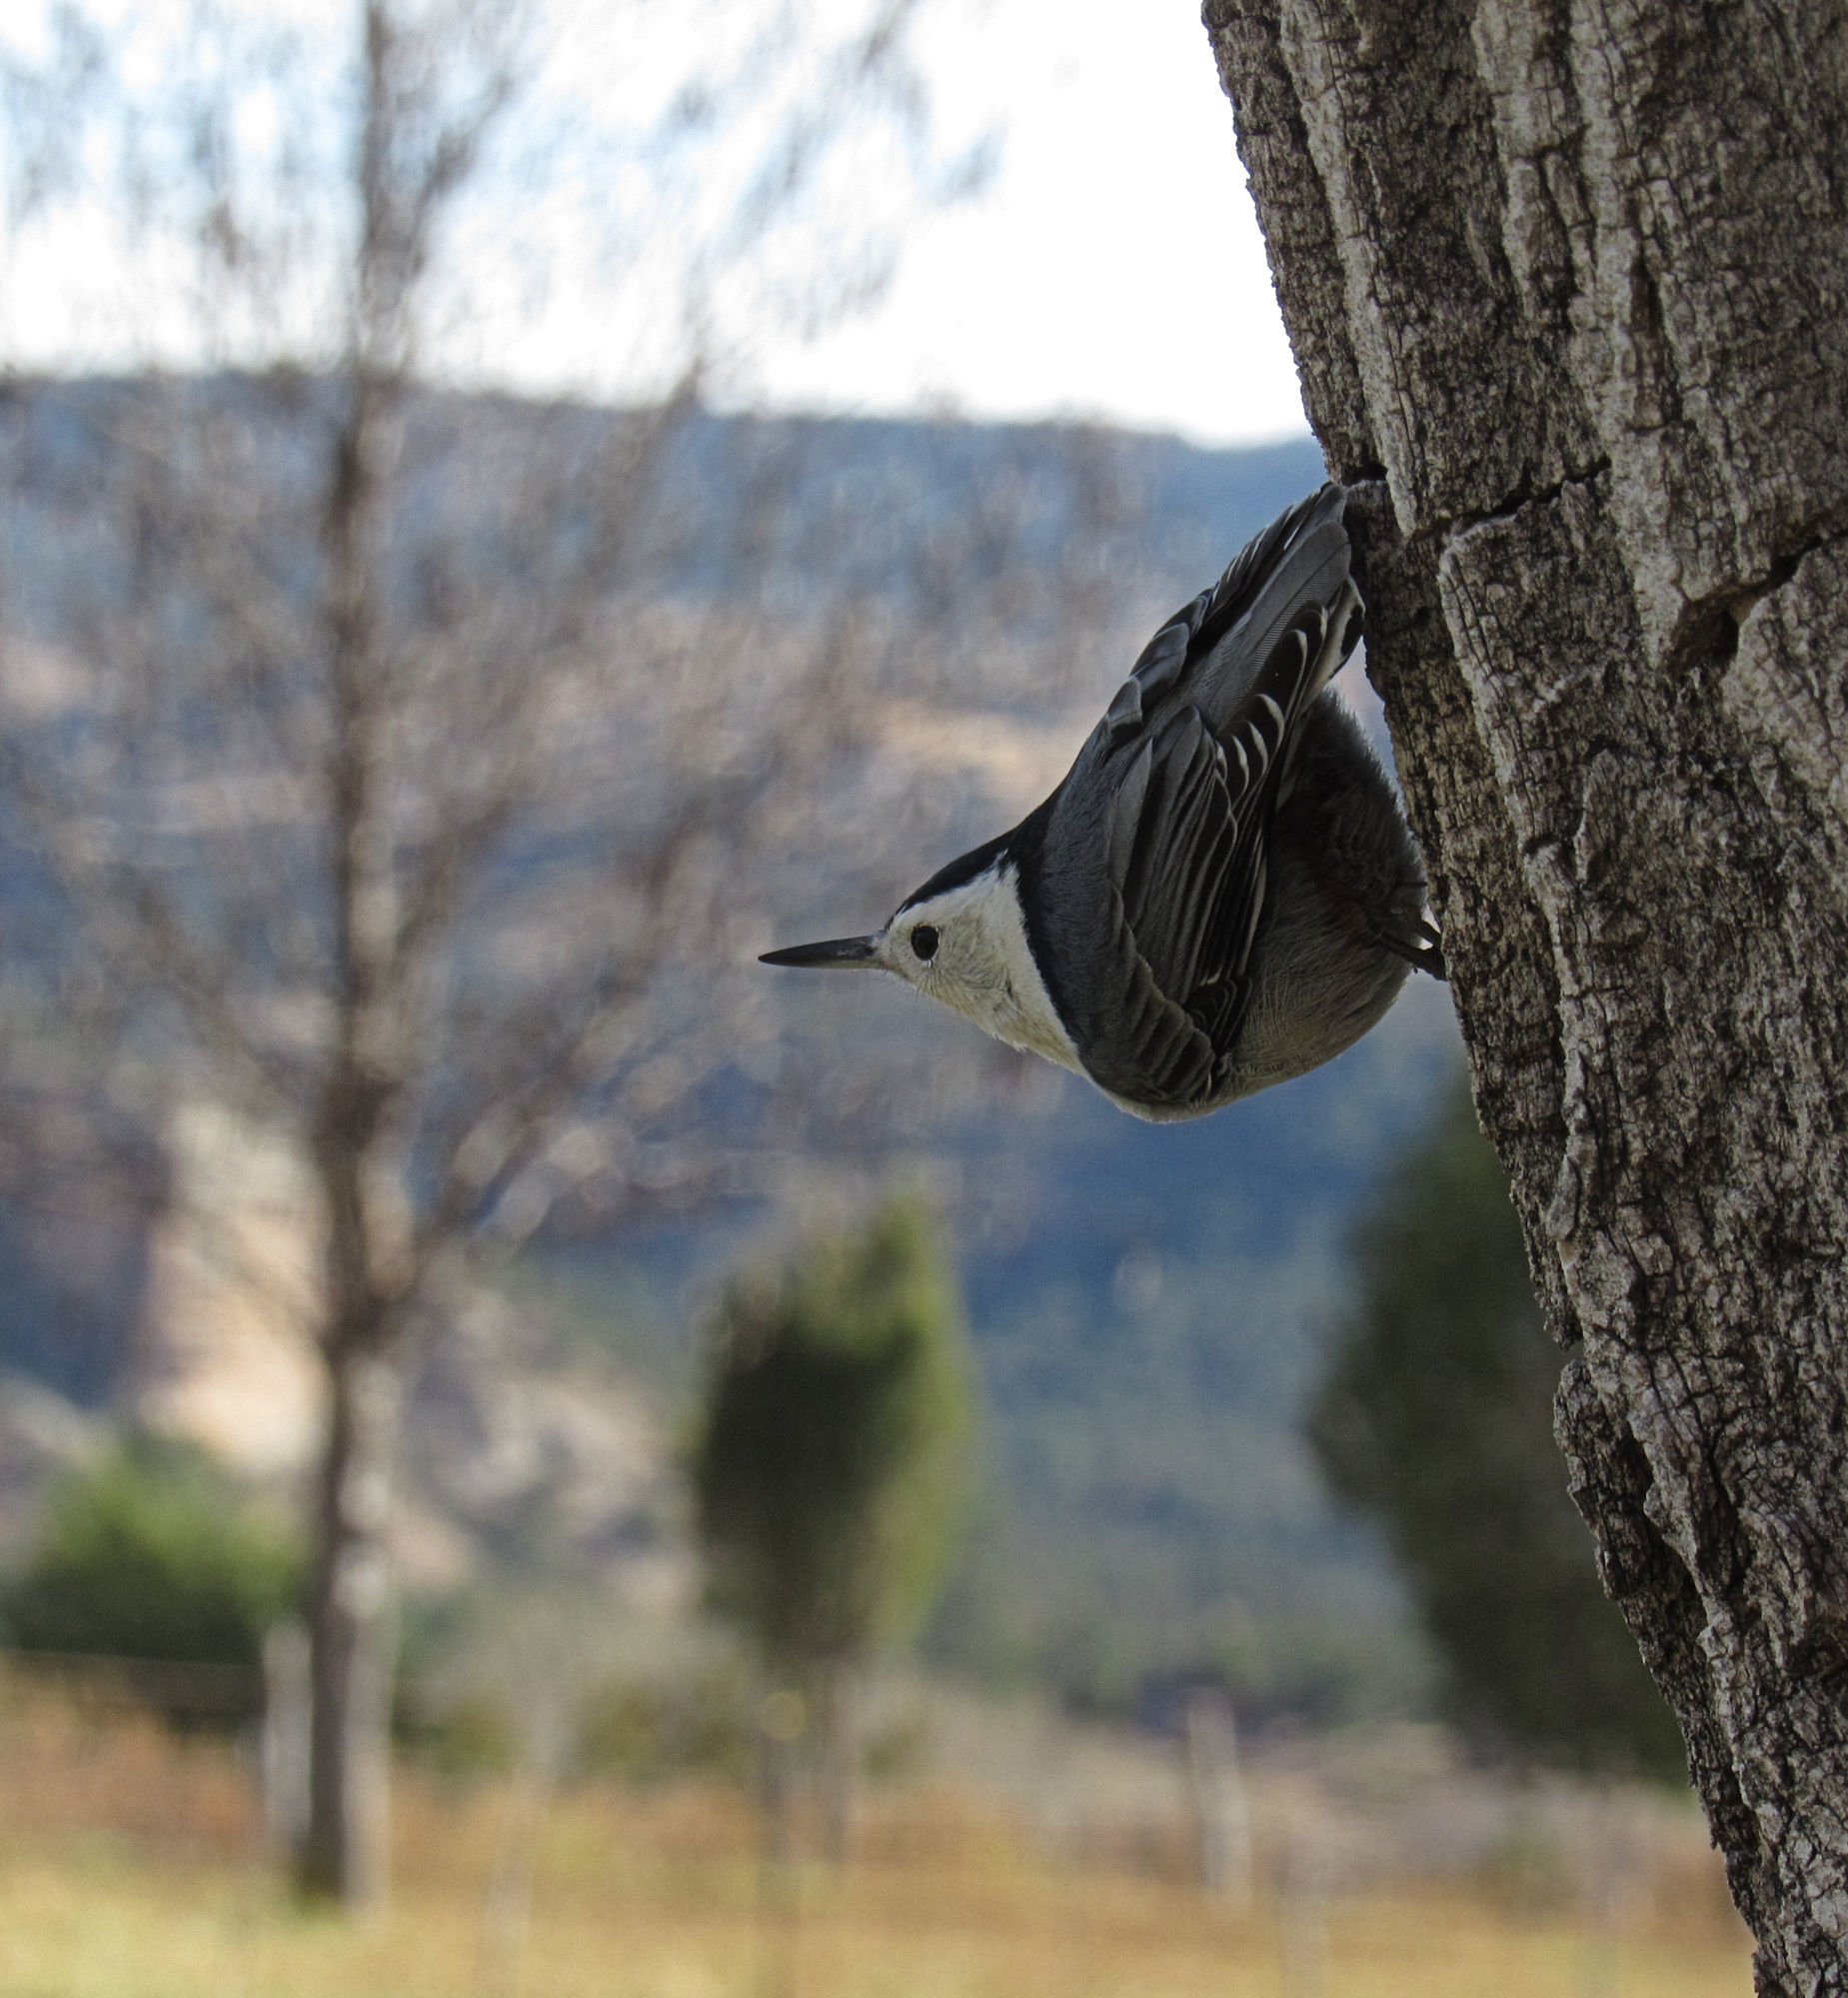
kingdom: Animalia
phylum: Chordata
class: Aves
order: Passeriformes
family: Sittidae
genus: Sitta
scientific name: Sitta carolinensis
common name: White-breasted nuthatch
